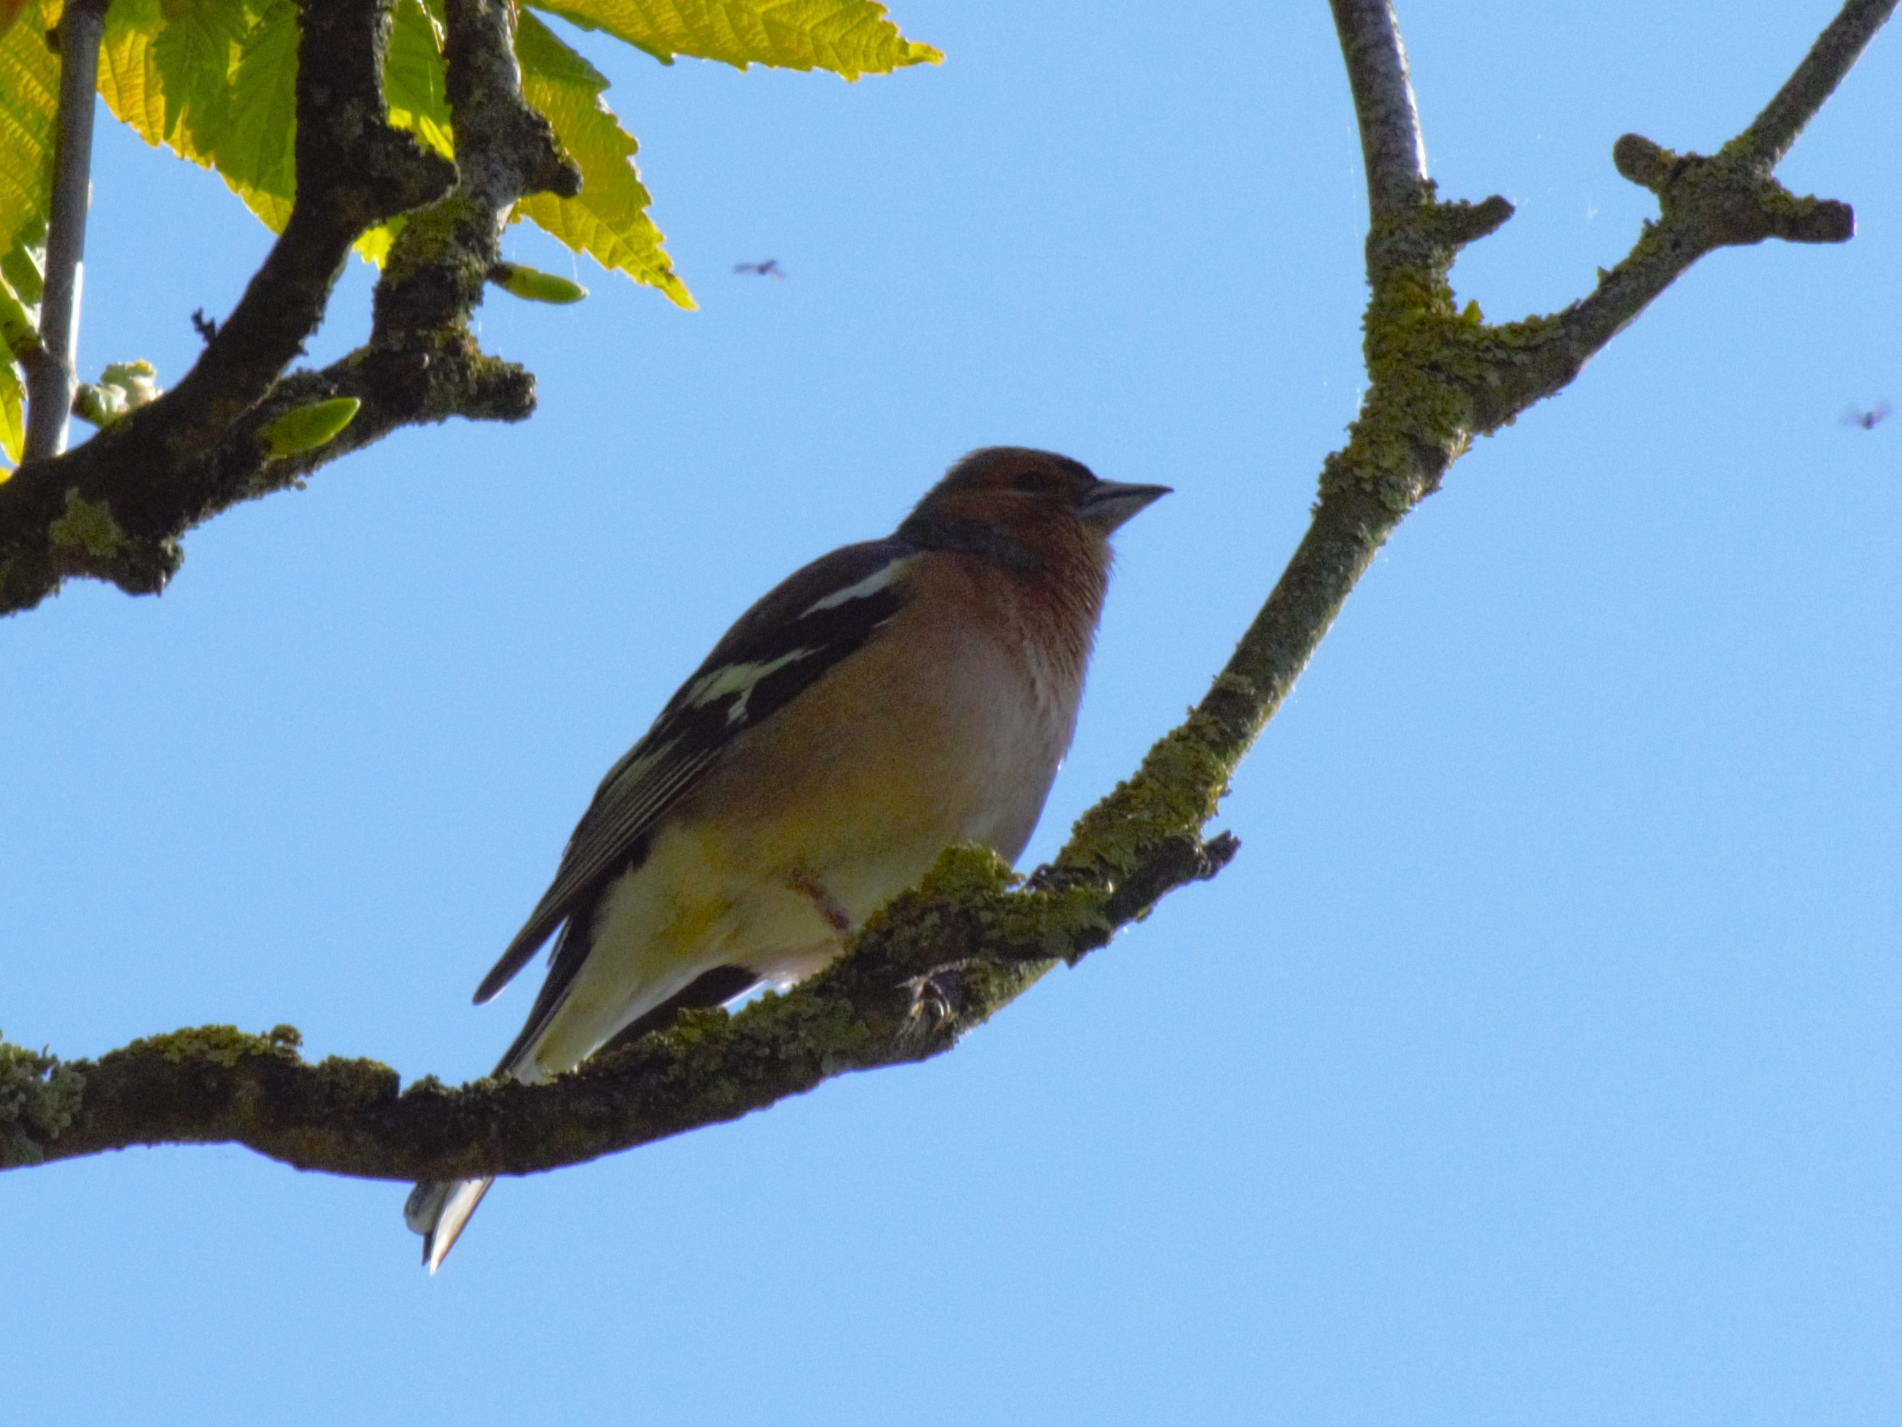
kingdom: Animalia
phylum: Chordata
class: Aves
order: Passeriformes
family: Fringillidae
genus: Fringilla
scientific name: Fringilla coelebs
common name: Common chaffinch
